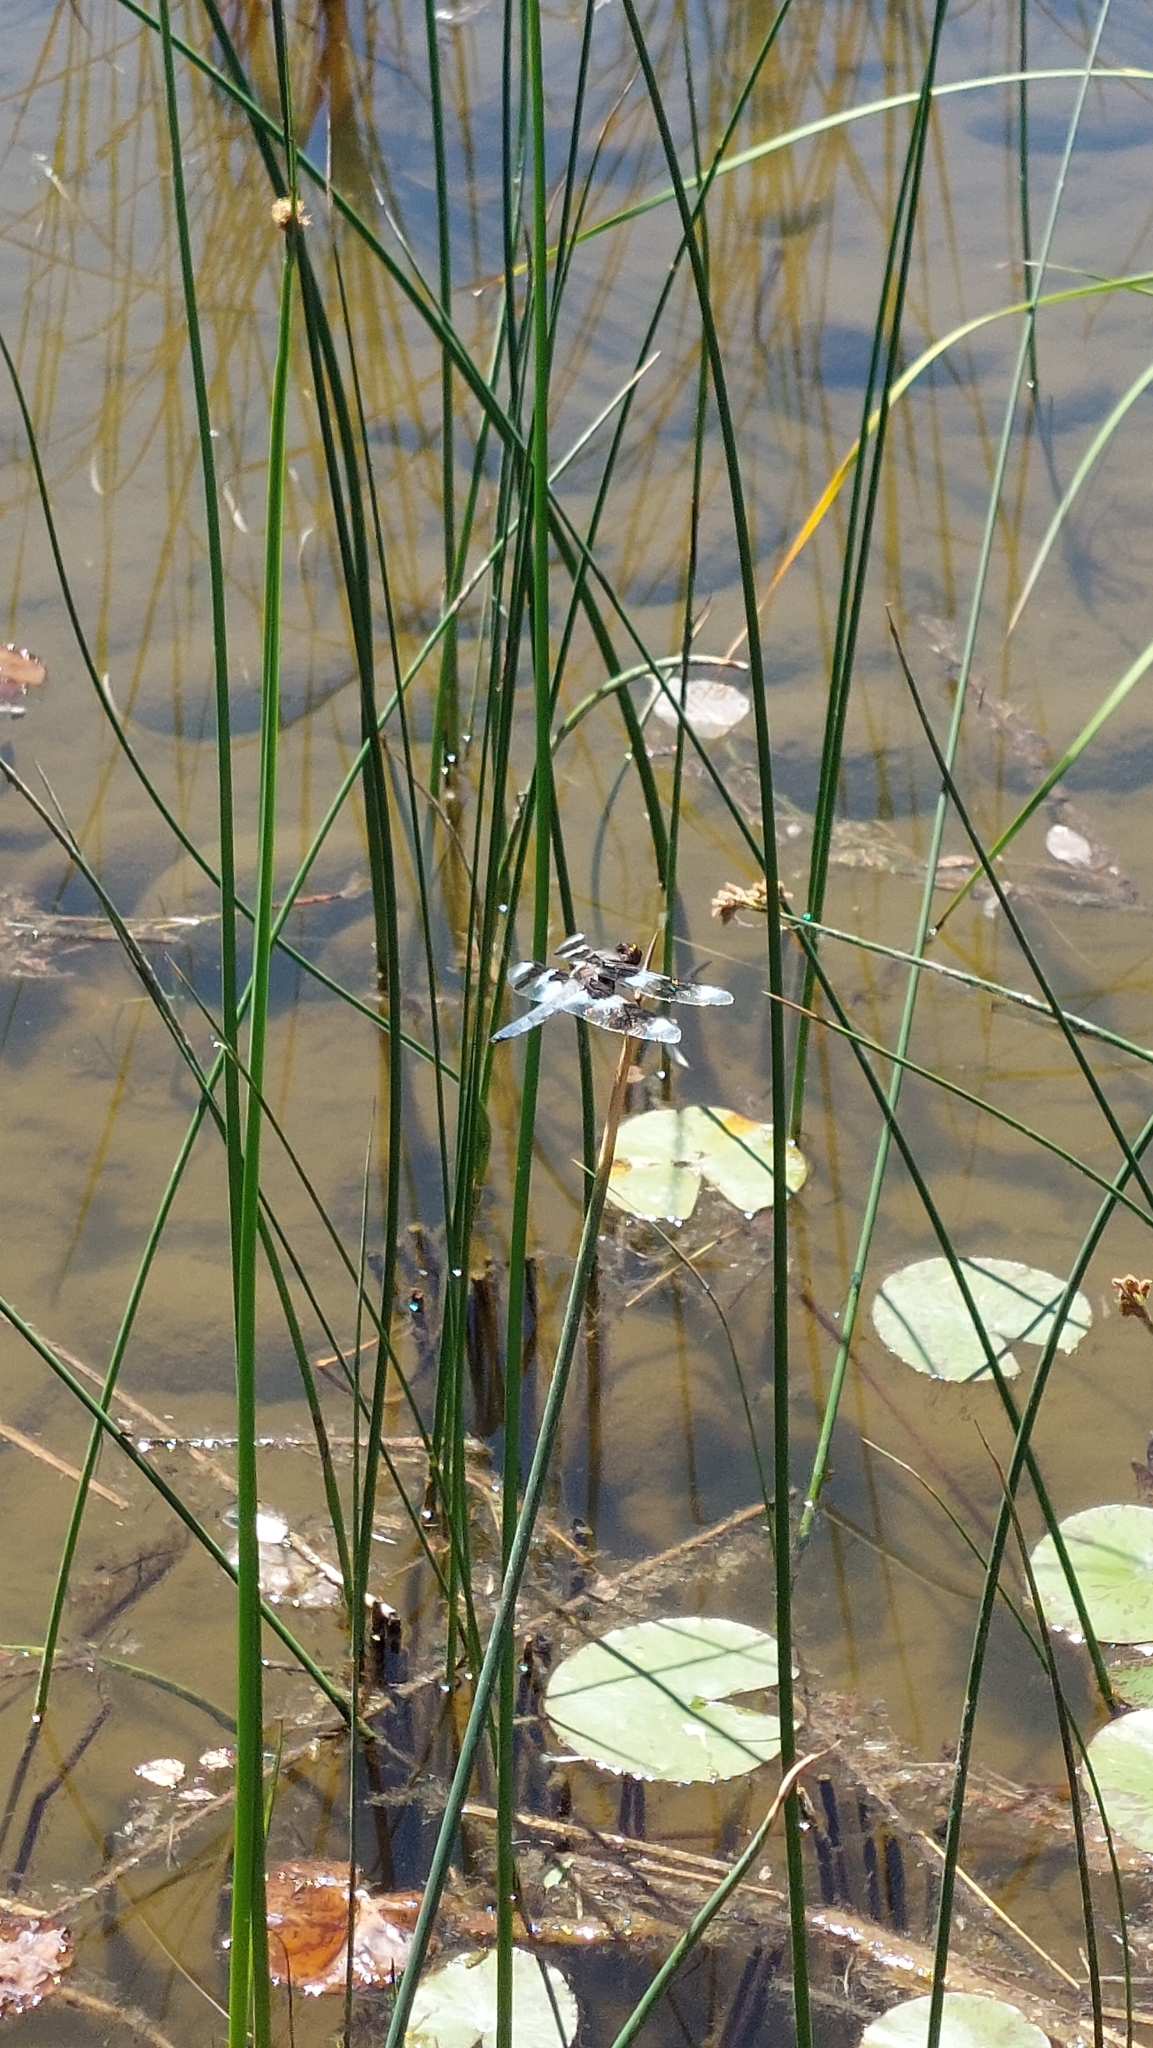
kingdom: Animalia
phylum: Arthropoda
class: Insecta
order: Odonata
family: Libellulidae
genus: Libellula
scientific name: Libellula forensis
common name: Eight-spotted skimmer
